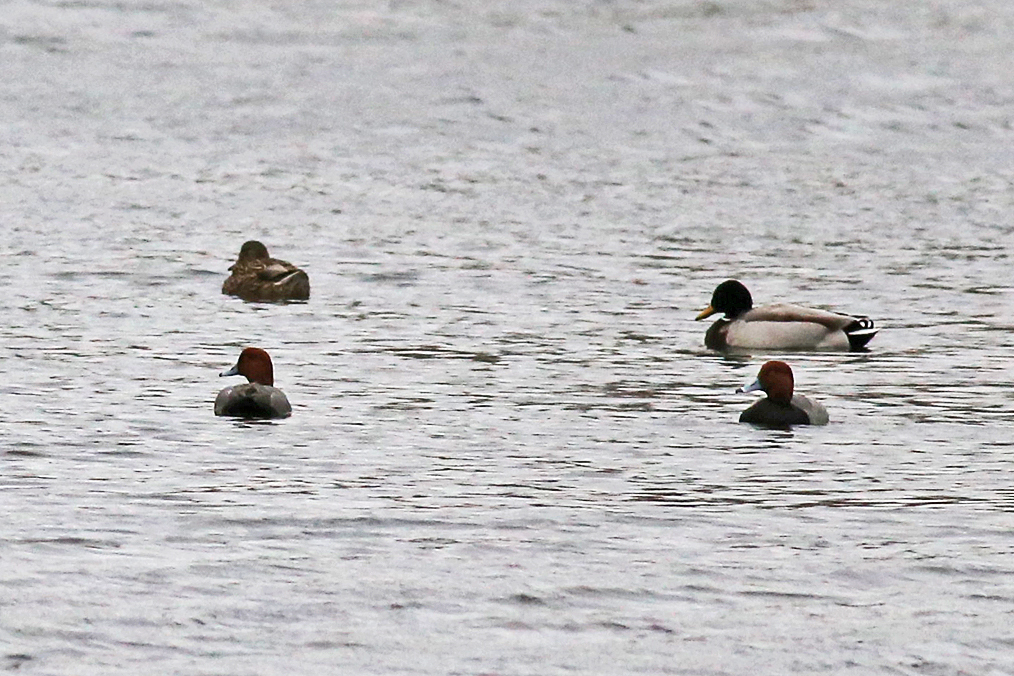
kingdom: Animalia
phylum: Chordata
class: Aves
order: Anseriformes
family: Anatidae
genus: Anas
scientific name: Anas platyrhynchos
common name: Mallard
